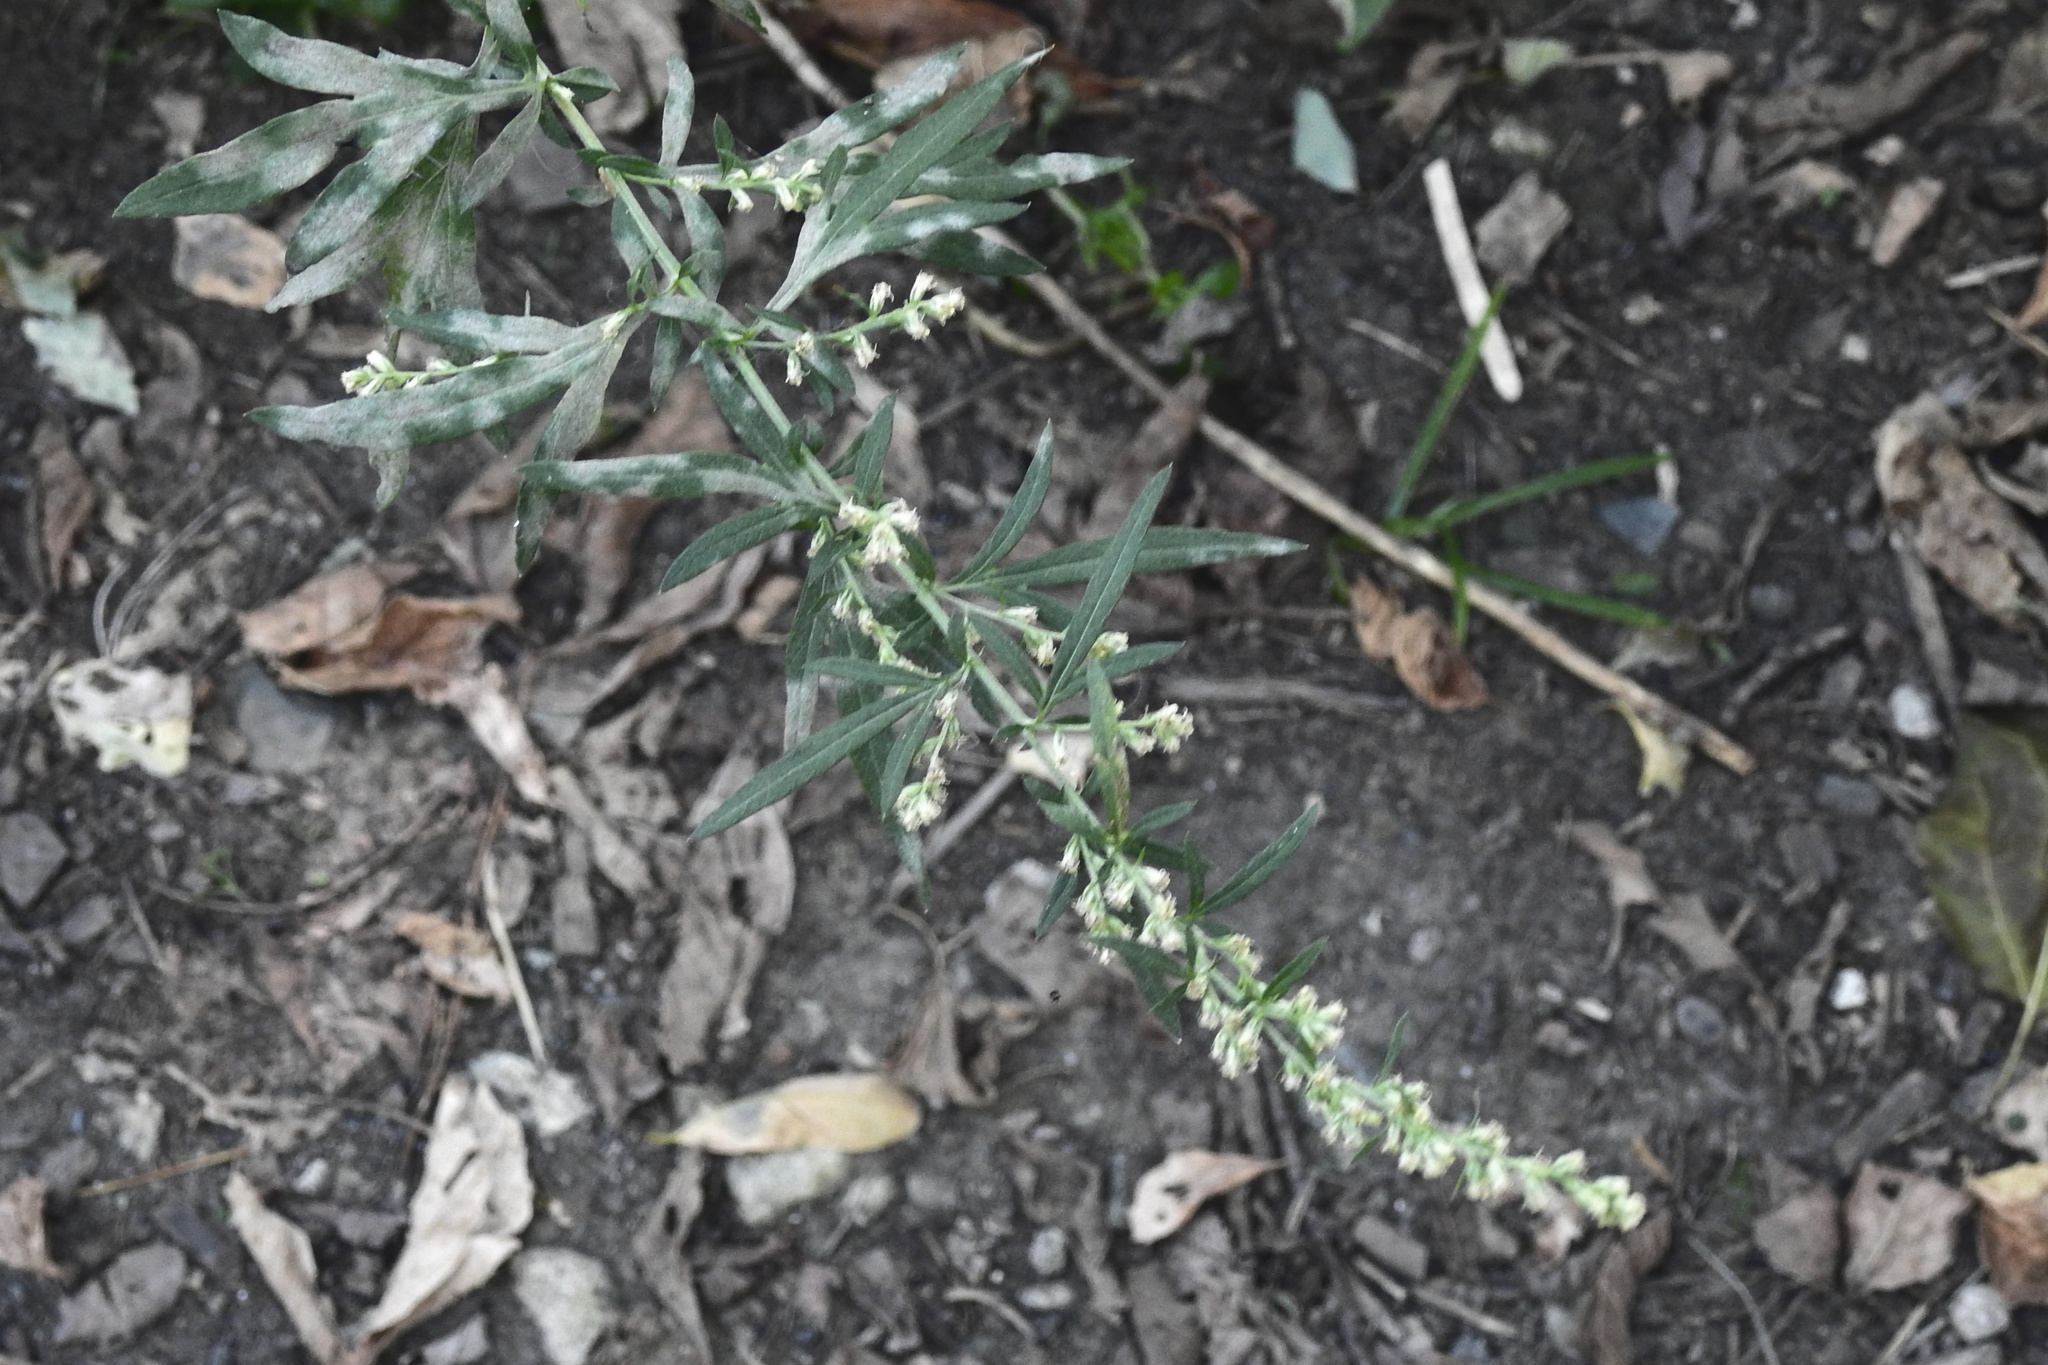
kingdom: Plantae
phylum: Tracheophyta
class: Magnoliopsida
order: Asterales
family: Asteraceae
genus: Artemisia
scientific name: Artemisia vulgaris
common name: Mugwort
